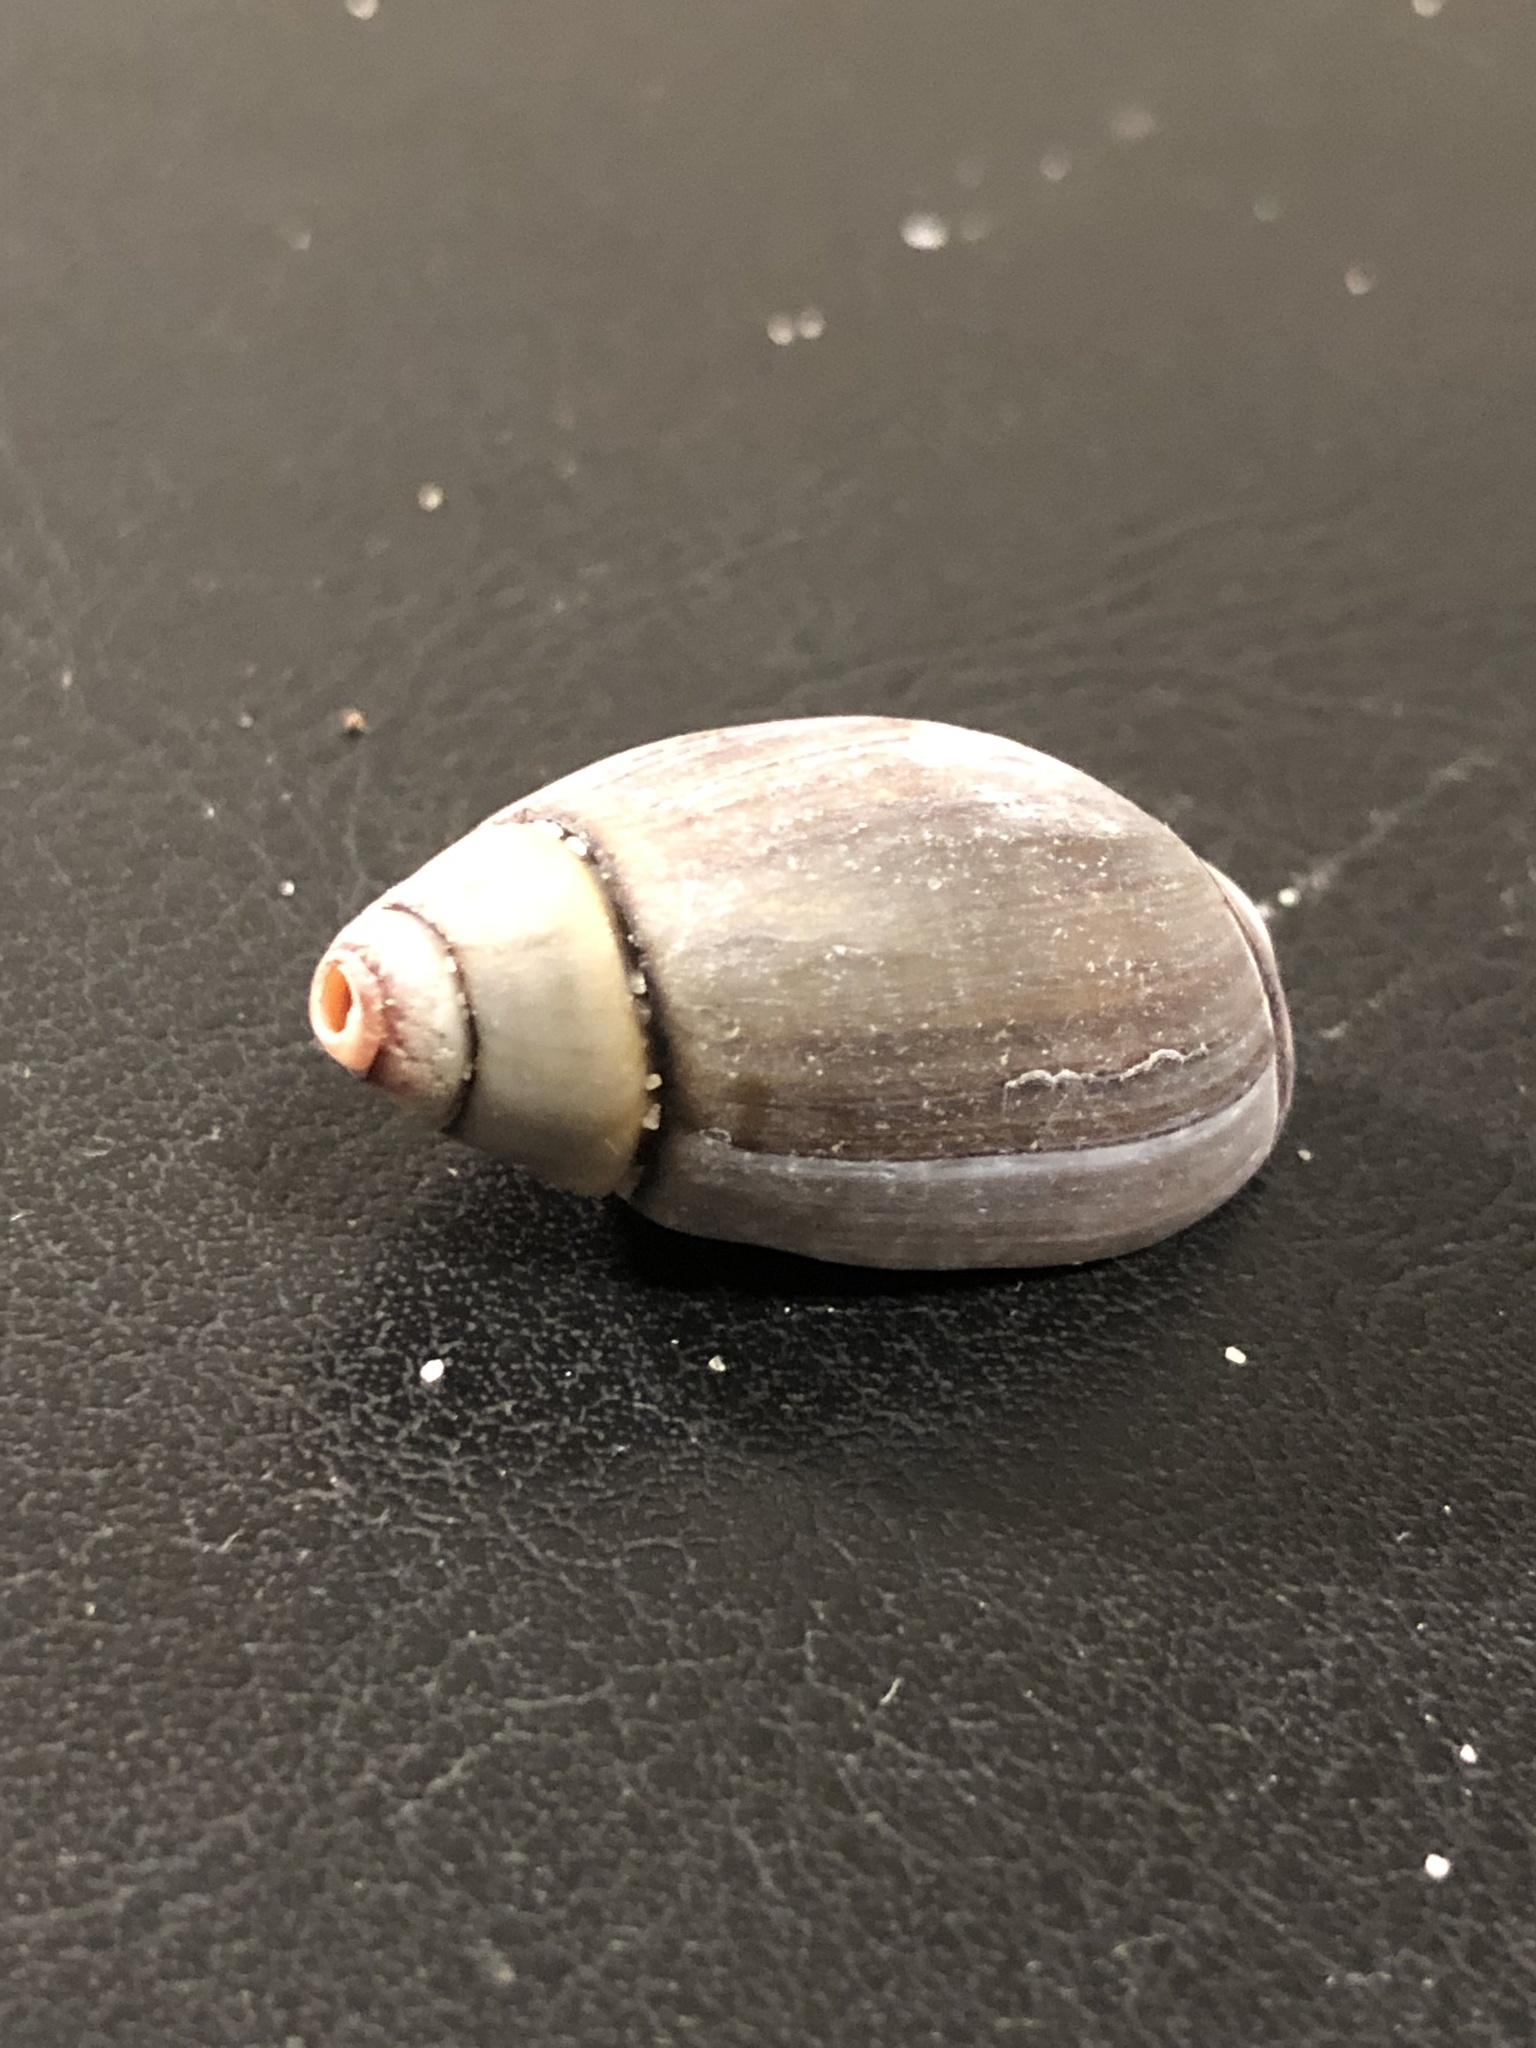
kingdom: Animalia
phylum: Mollusca
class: Gastropoda
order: Neogastropoda
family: Olividae
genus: Callianax
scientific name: Callianax biplicata
